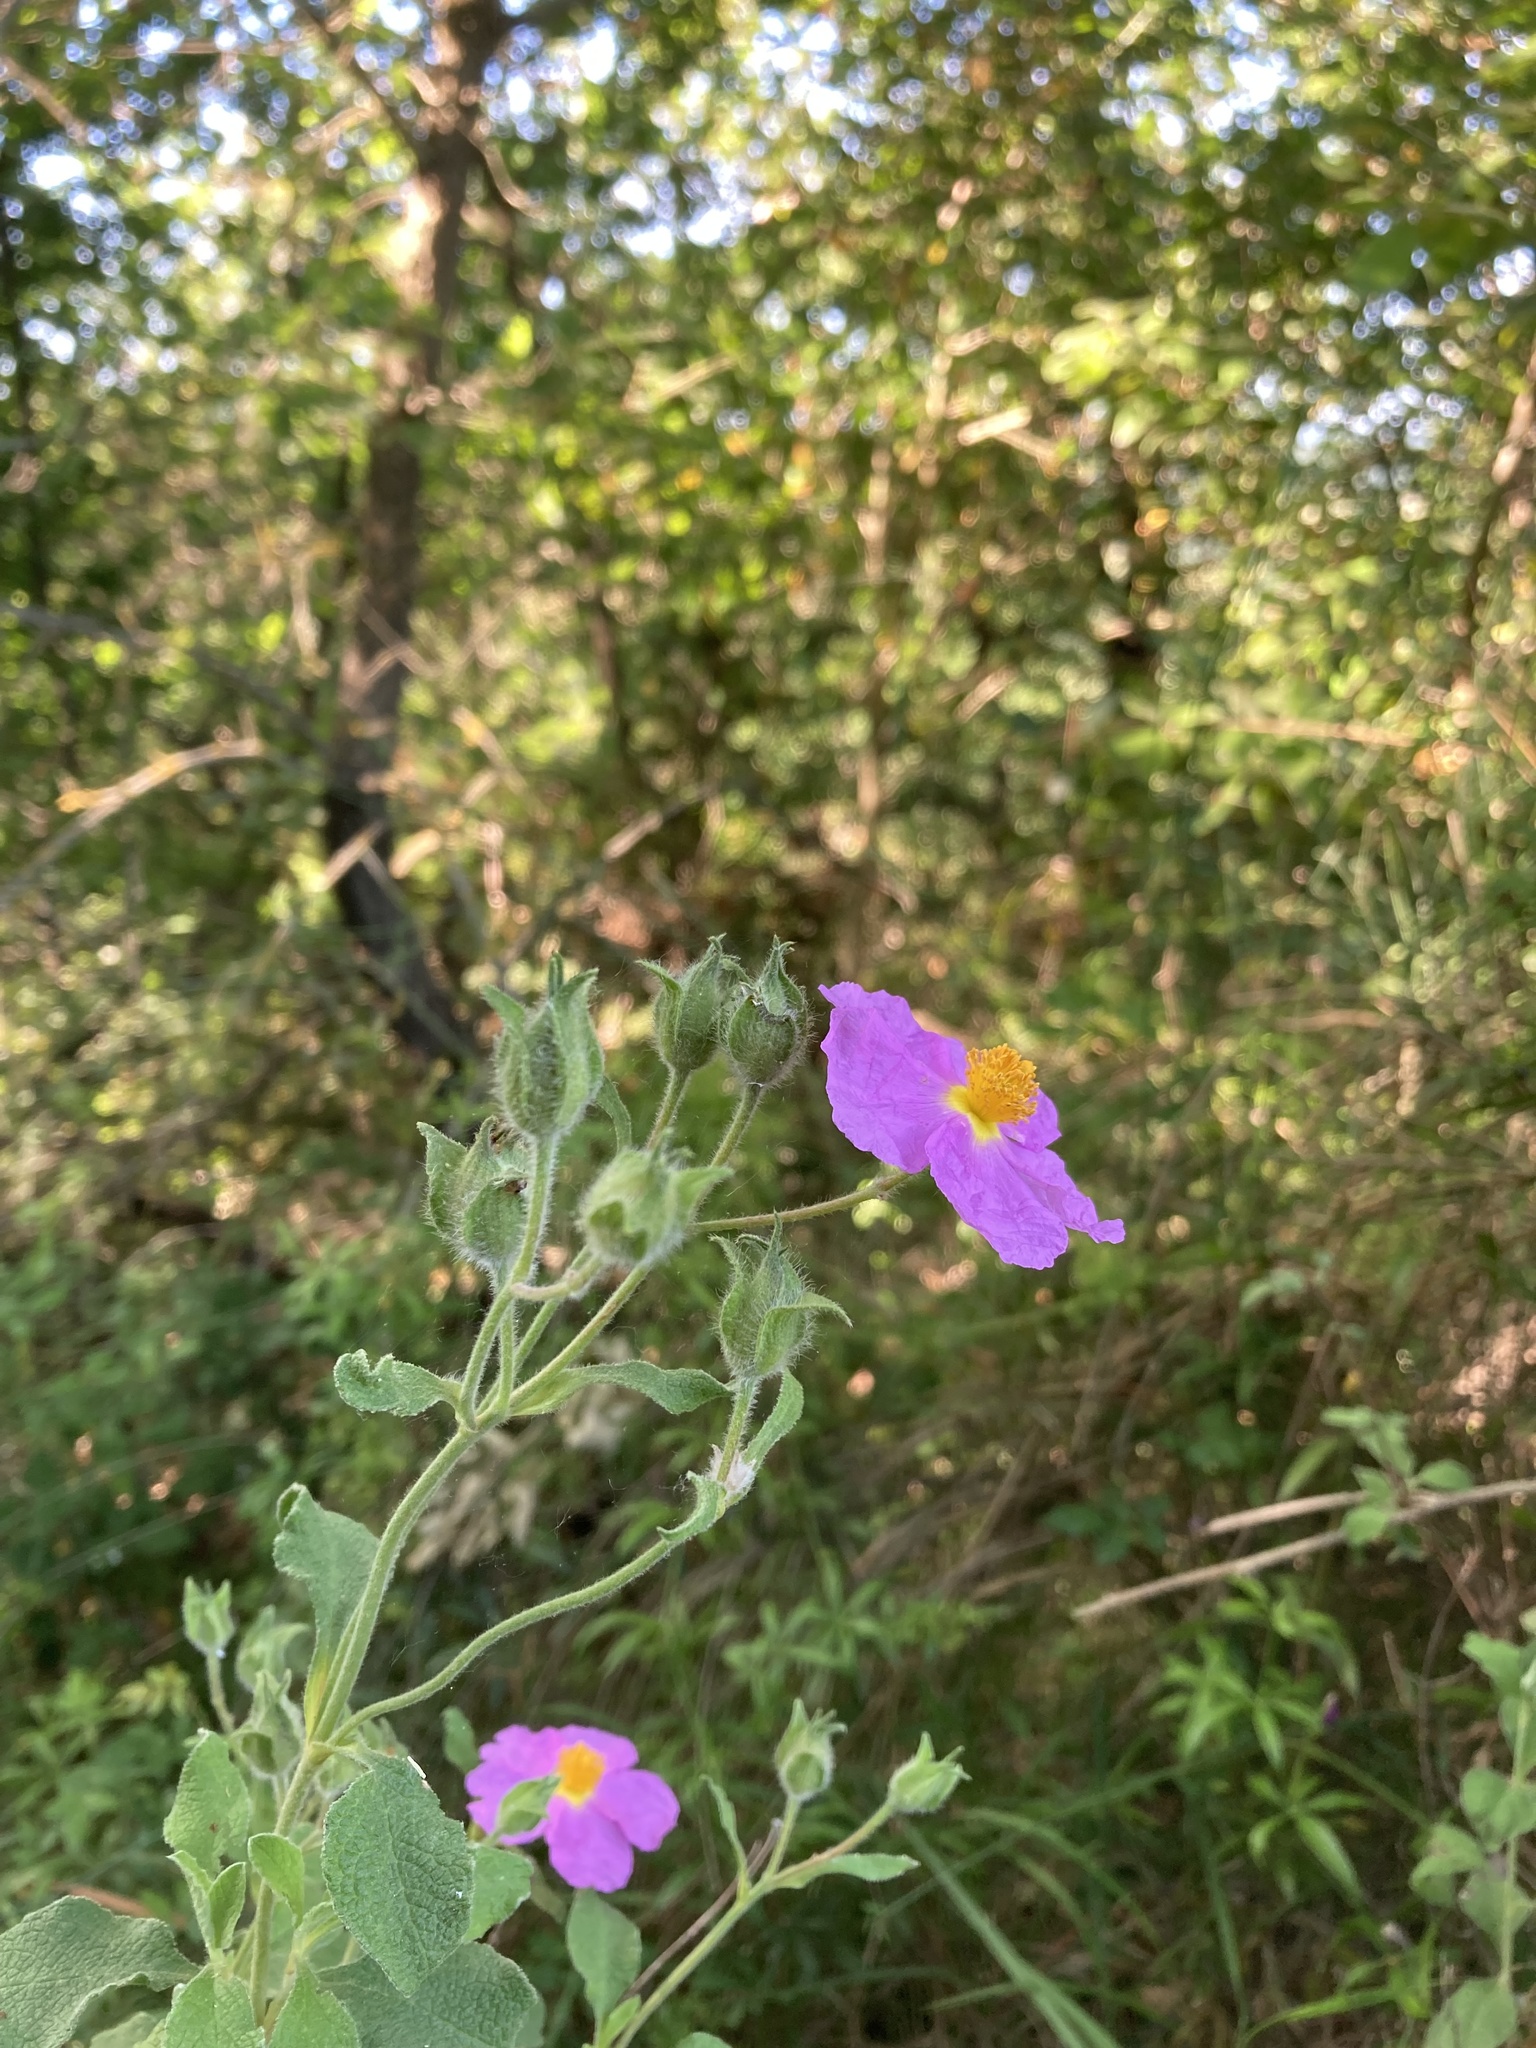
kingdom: Plantae
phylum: Tracheophyta
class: Magnoliopsida
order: Malvales
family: Cistaceae
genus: Cistus
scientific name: Cistus creticus
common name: Cretan rockrose
